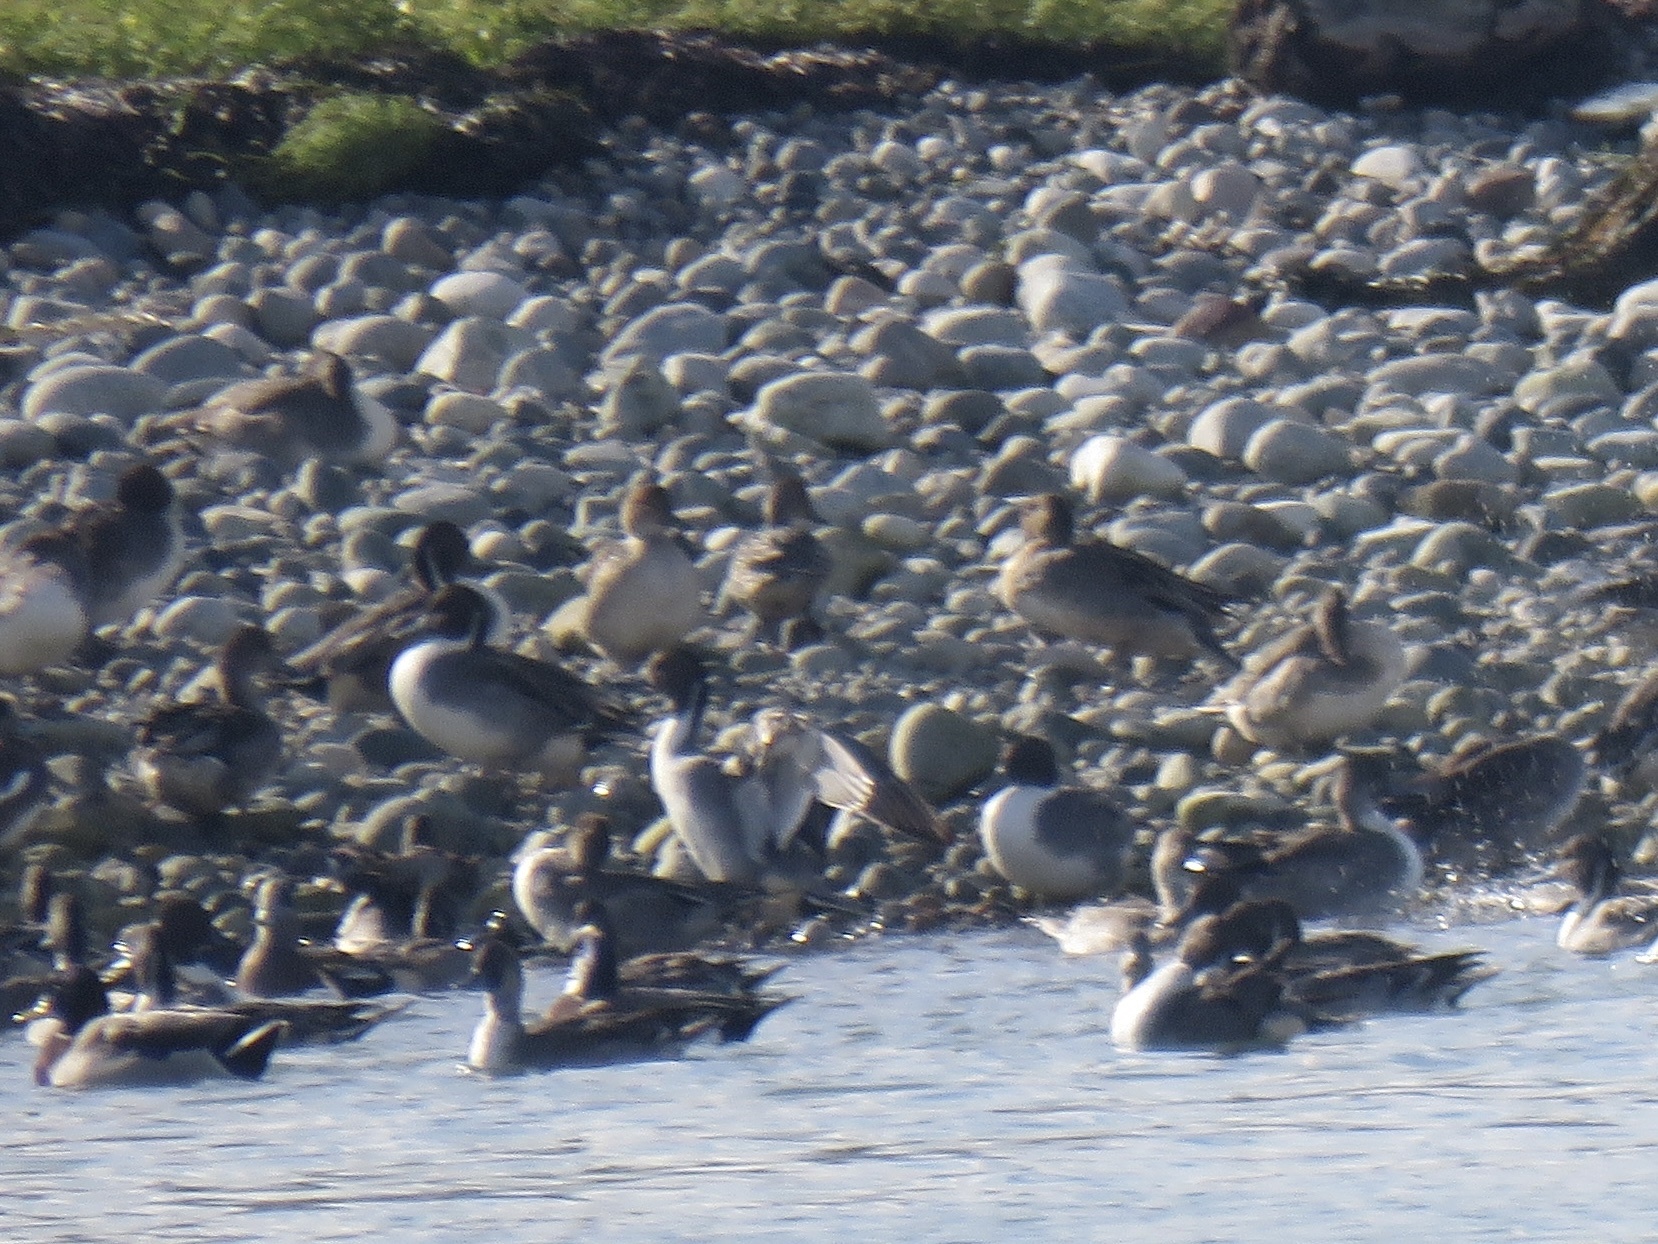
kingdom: Animalia
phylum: Chordata
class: Aves
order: Anseriformes
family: Anatidae
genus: Anas
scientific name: Anas acuta
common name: Northern pintail
